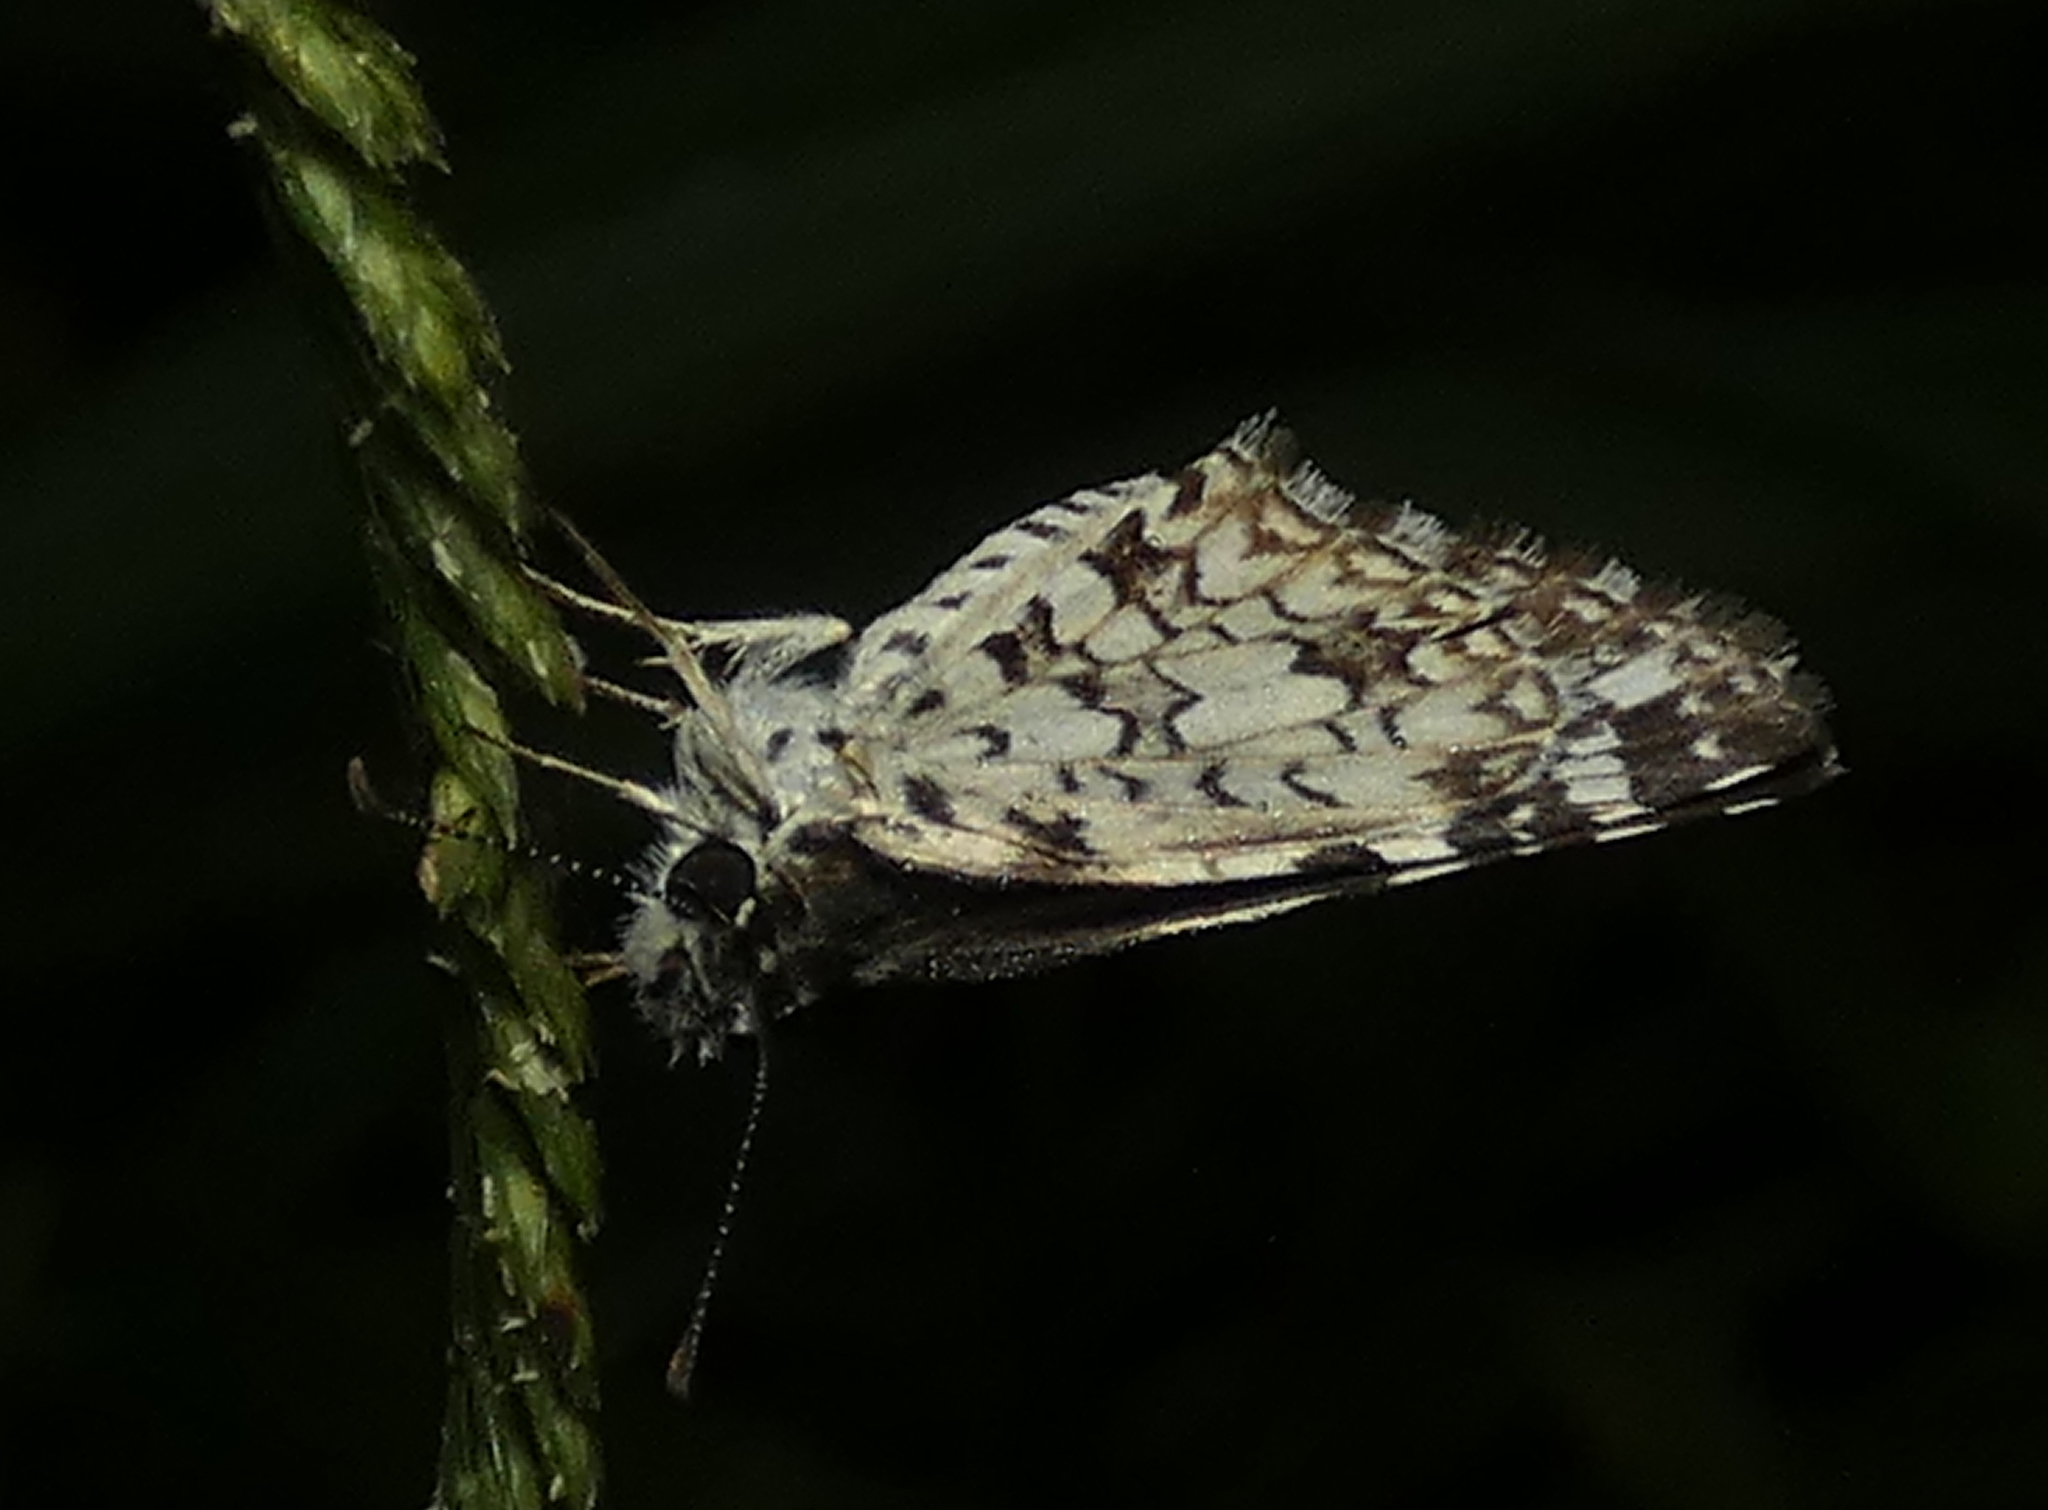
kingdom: Animalia
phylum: Arthropoda
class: Insecta
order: Lepidoptera
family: Hesperiidae
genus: Pyrgus
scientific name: Pyrgus oileus
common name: Tropical checkered-skipper
